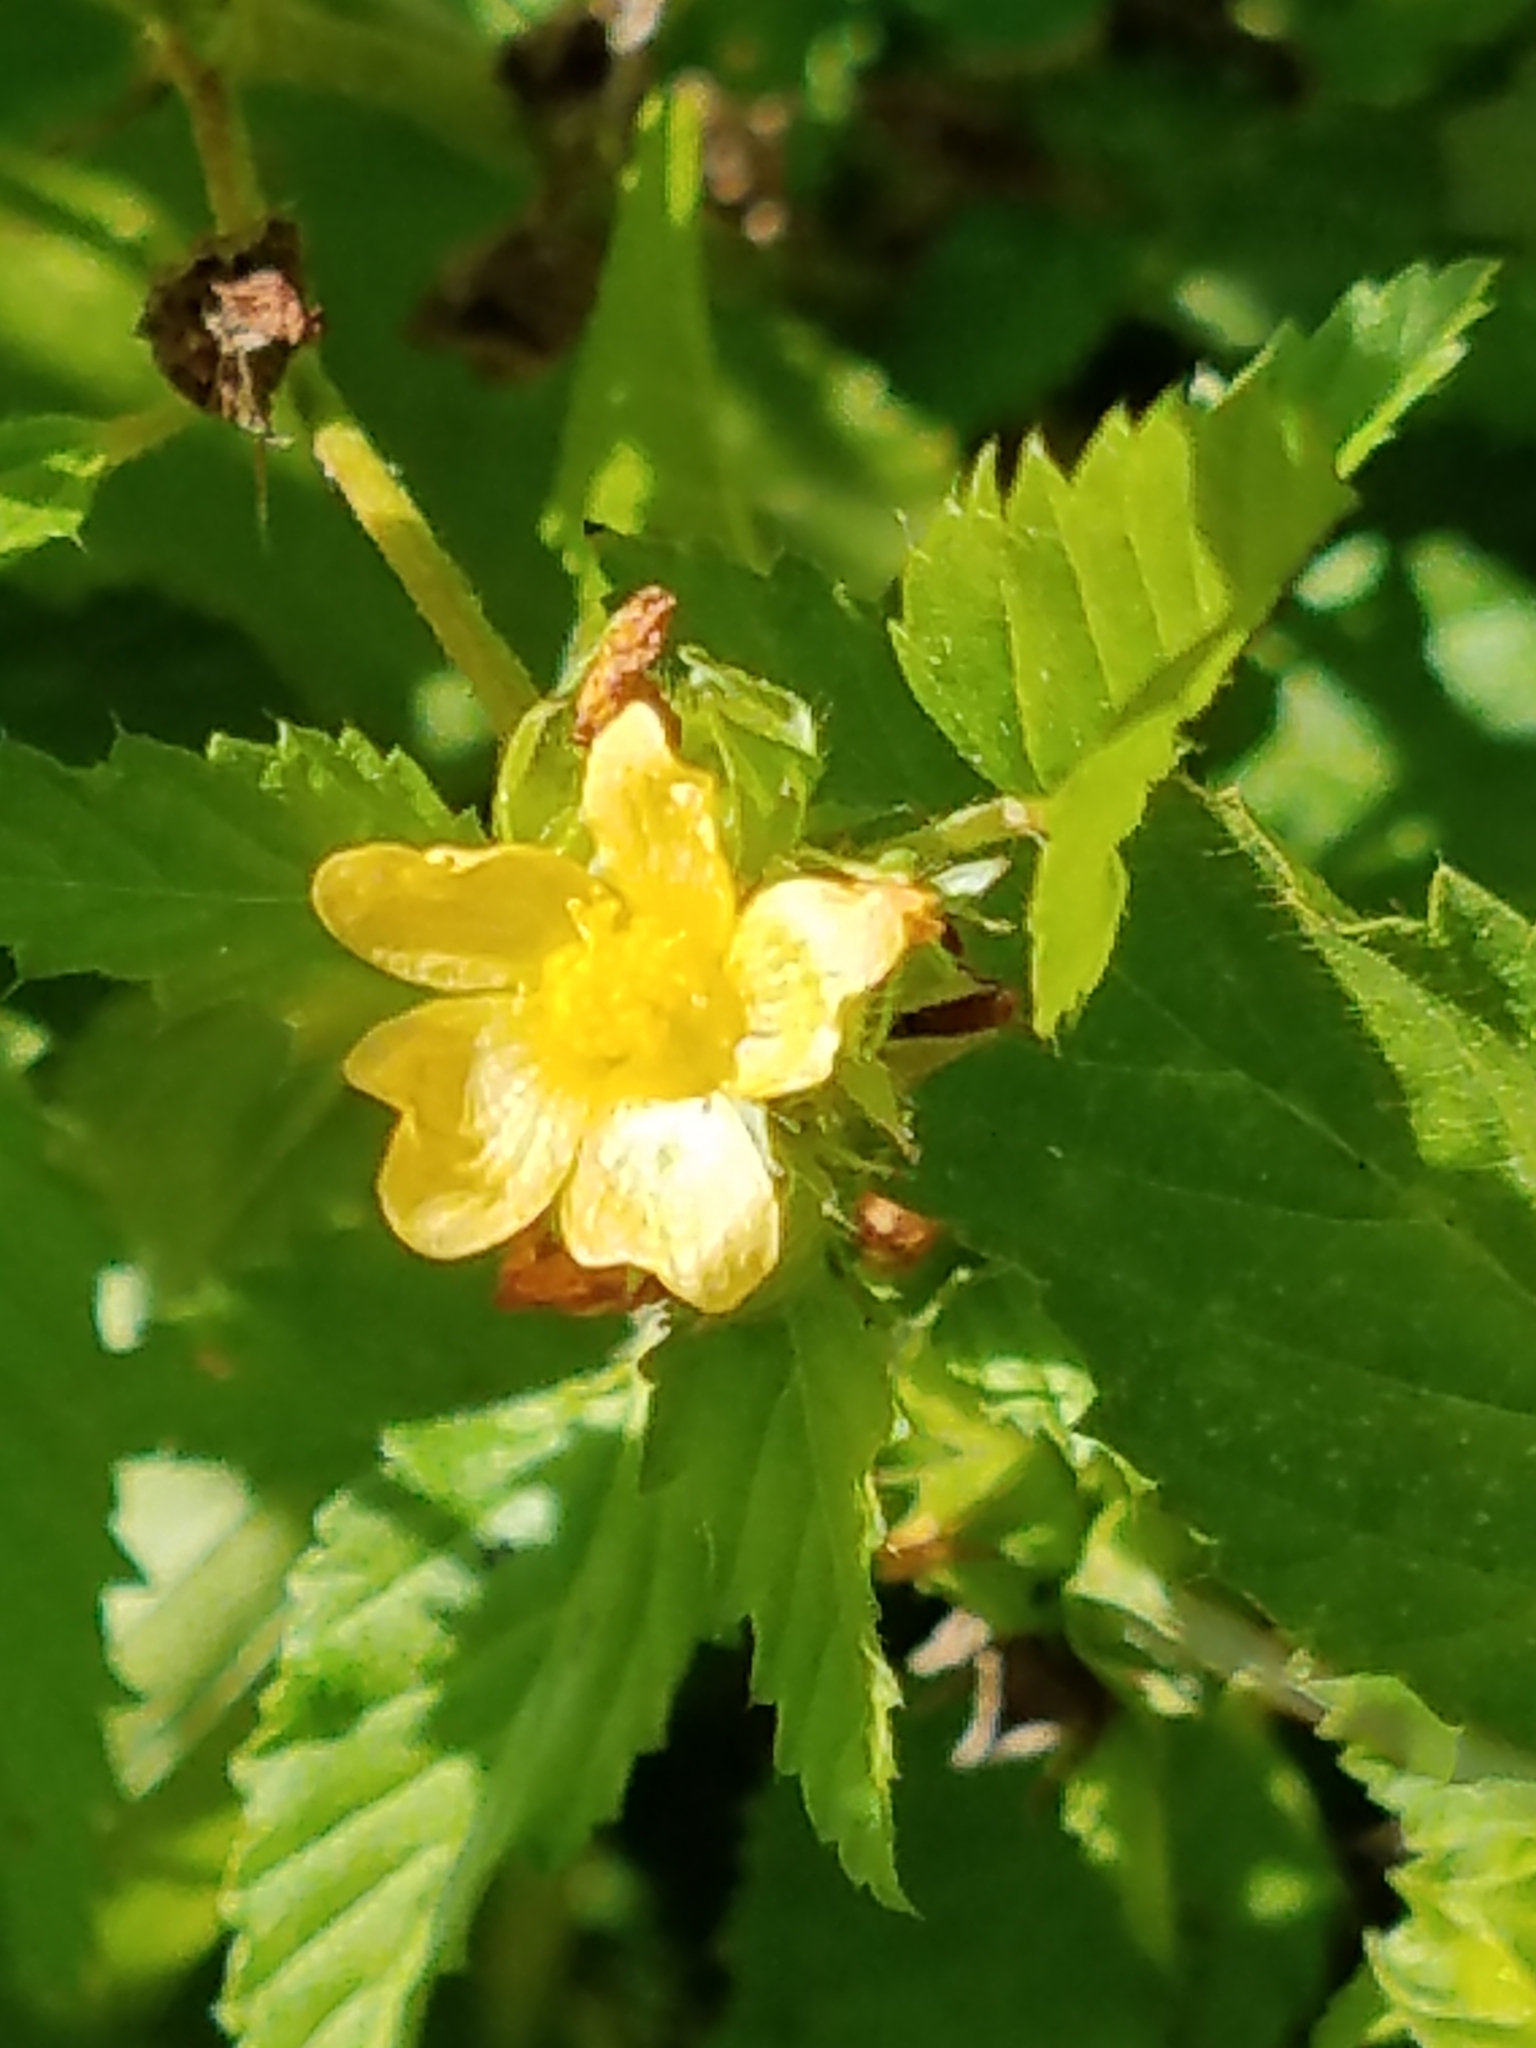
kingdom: Plantae
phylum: Tracheophyta
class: Magnoliopsida
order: Malvales
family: Malvaceae
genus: Malvastrum
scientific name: Malvastrum coromandelianum
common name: Threelobe false mallow
